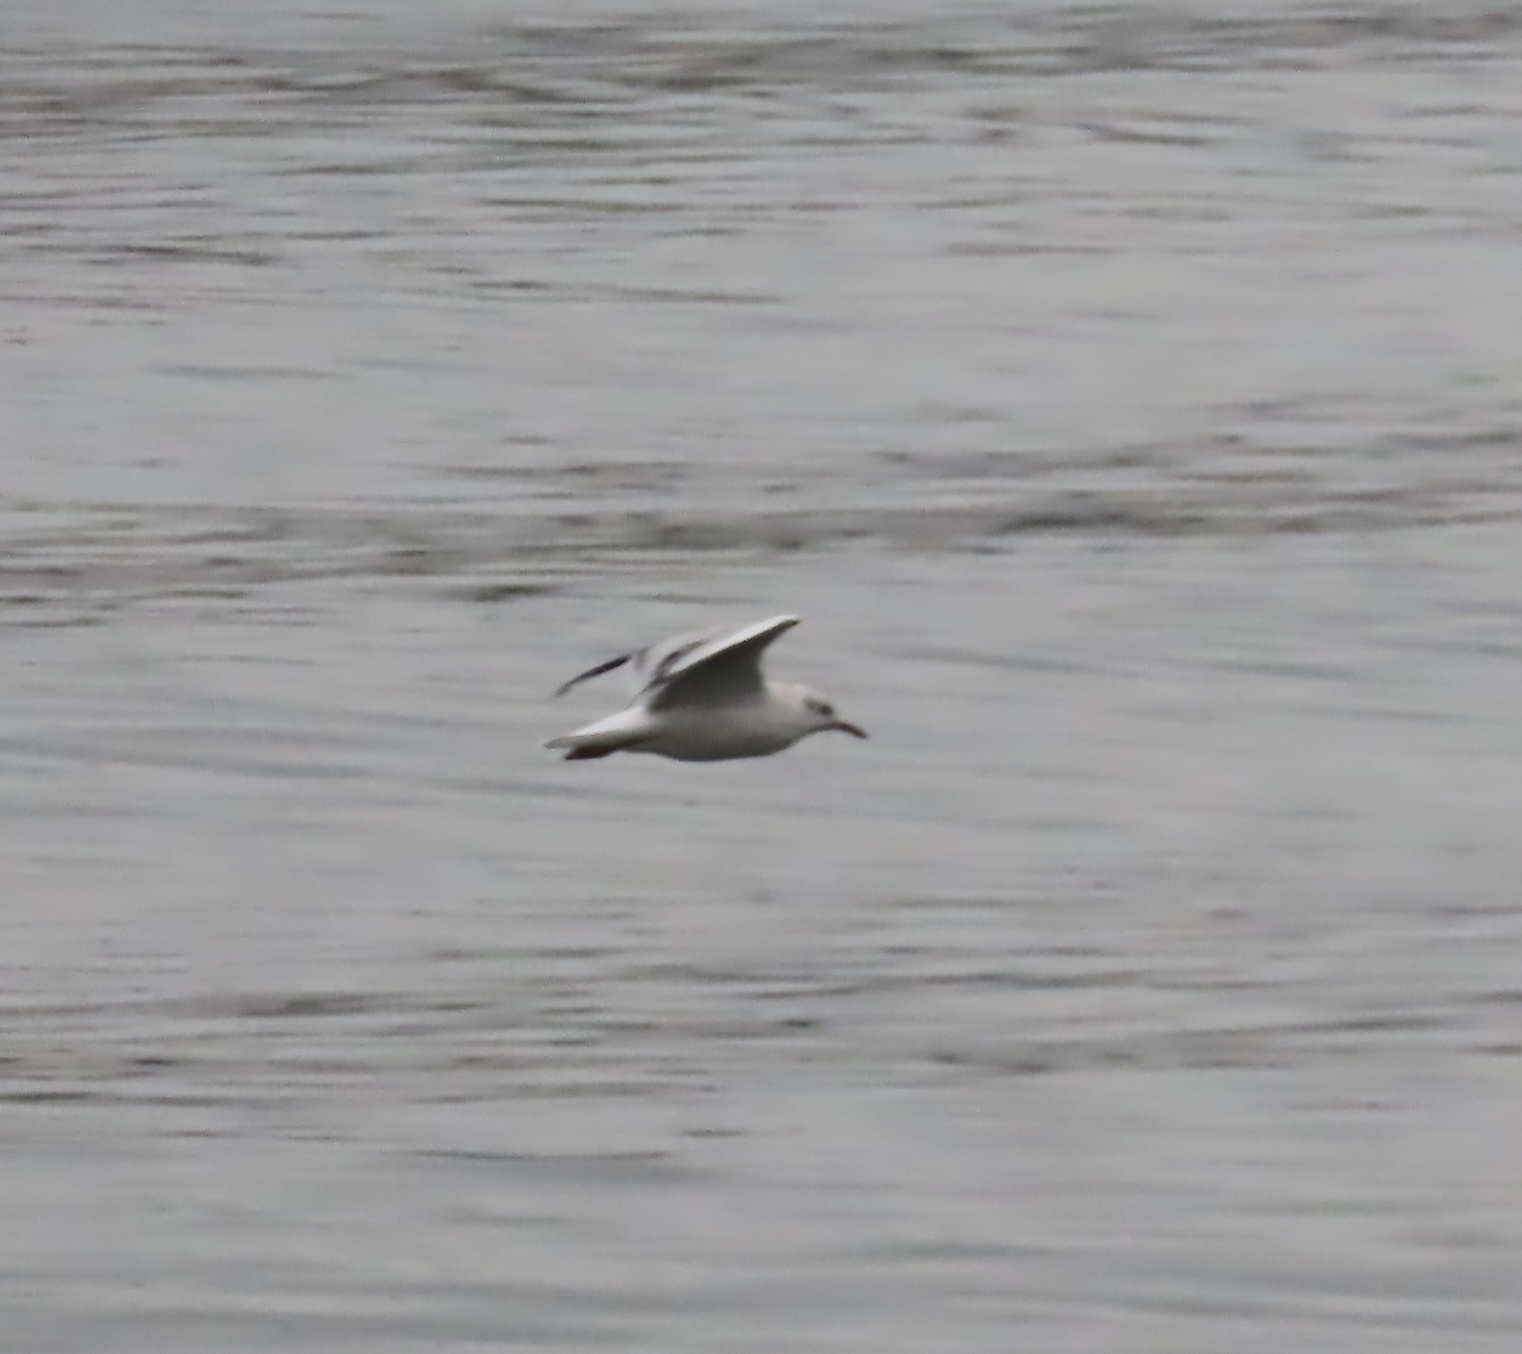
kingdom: Animalia
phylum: Chordata
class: Aves
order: Charadriiformes
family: Laridae
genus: Chroicocephalus
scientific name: Chroicocephalus maculipennis
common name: Brown-hooded gull
